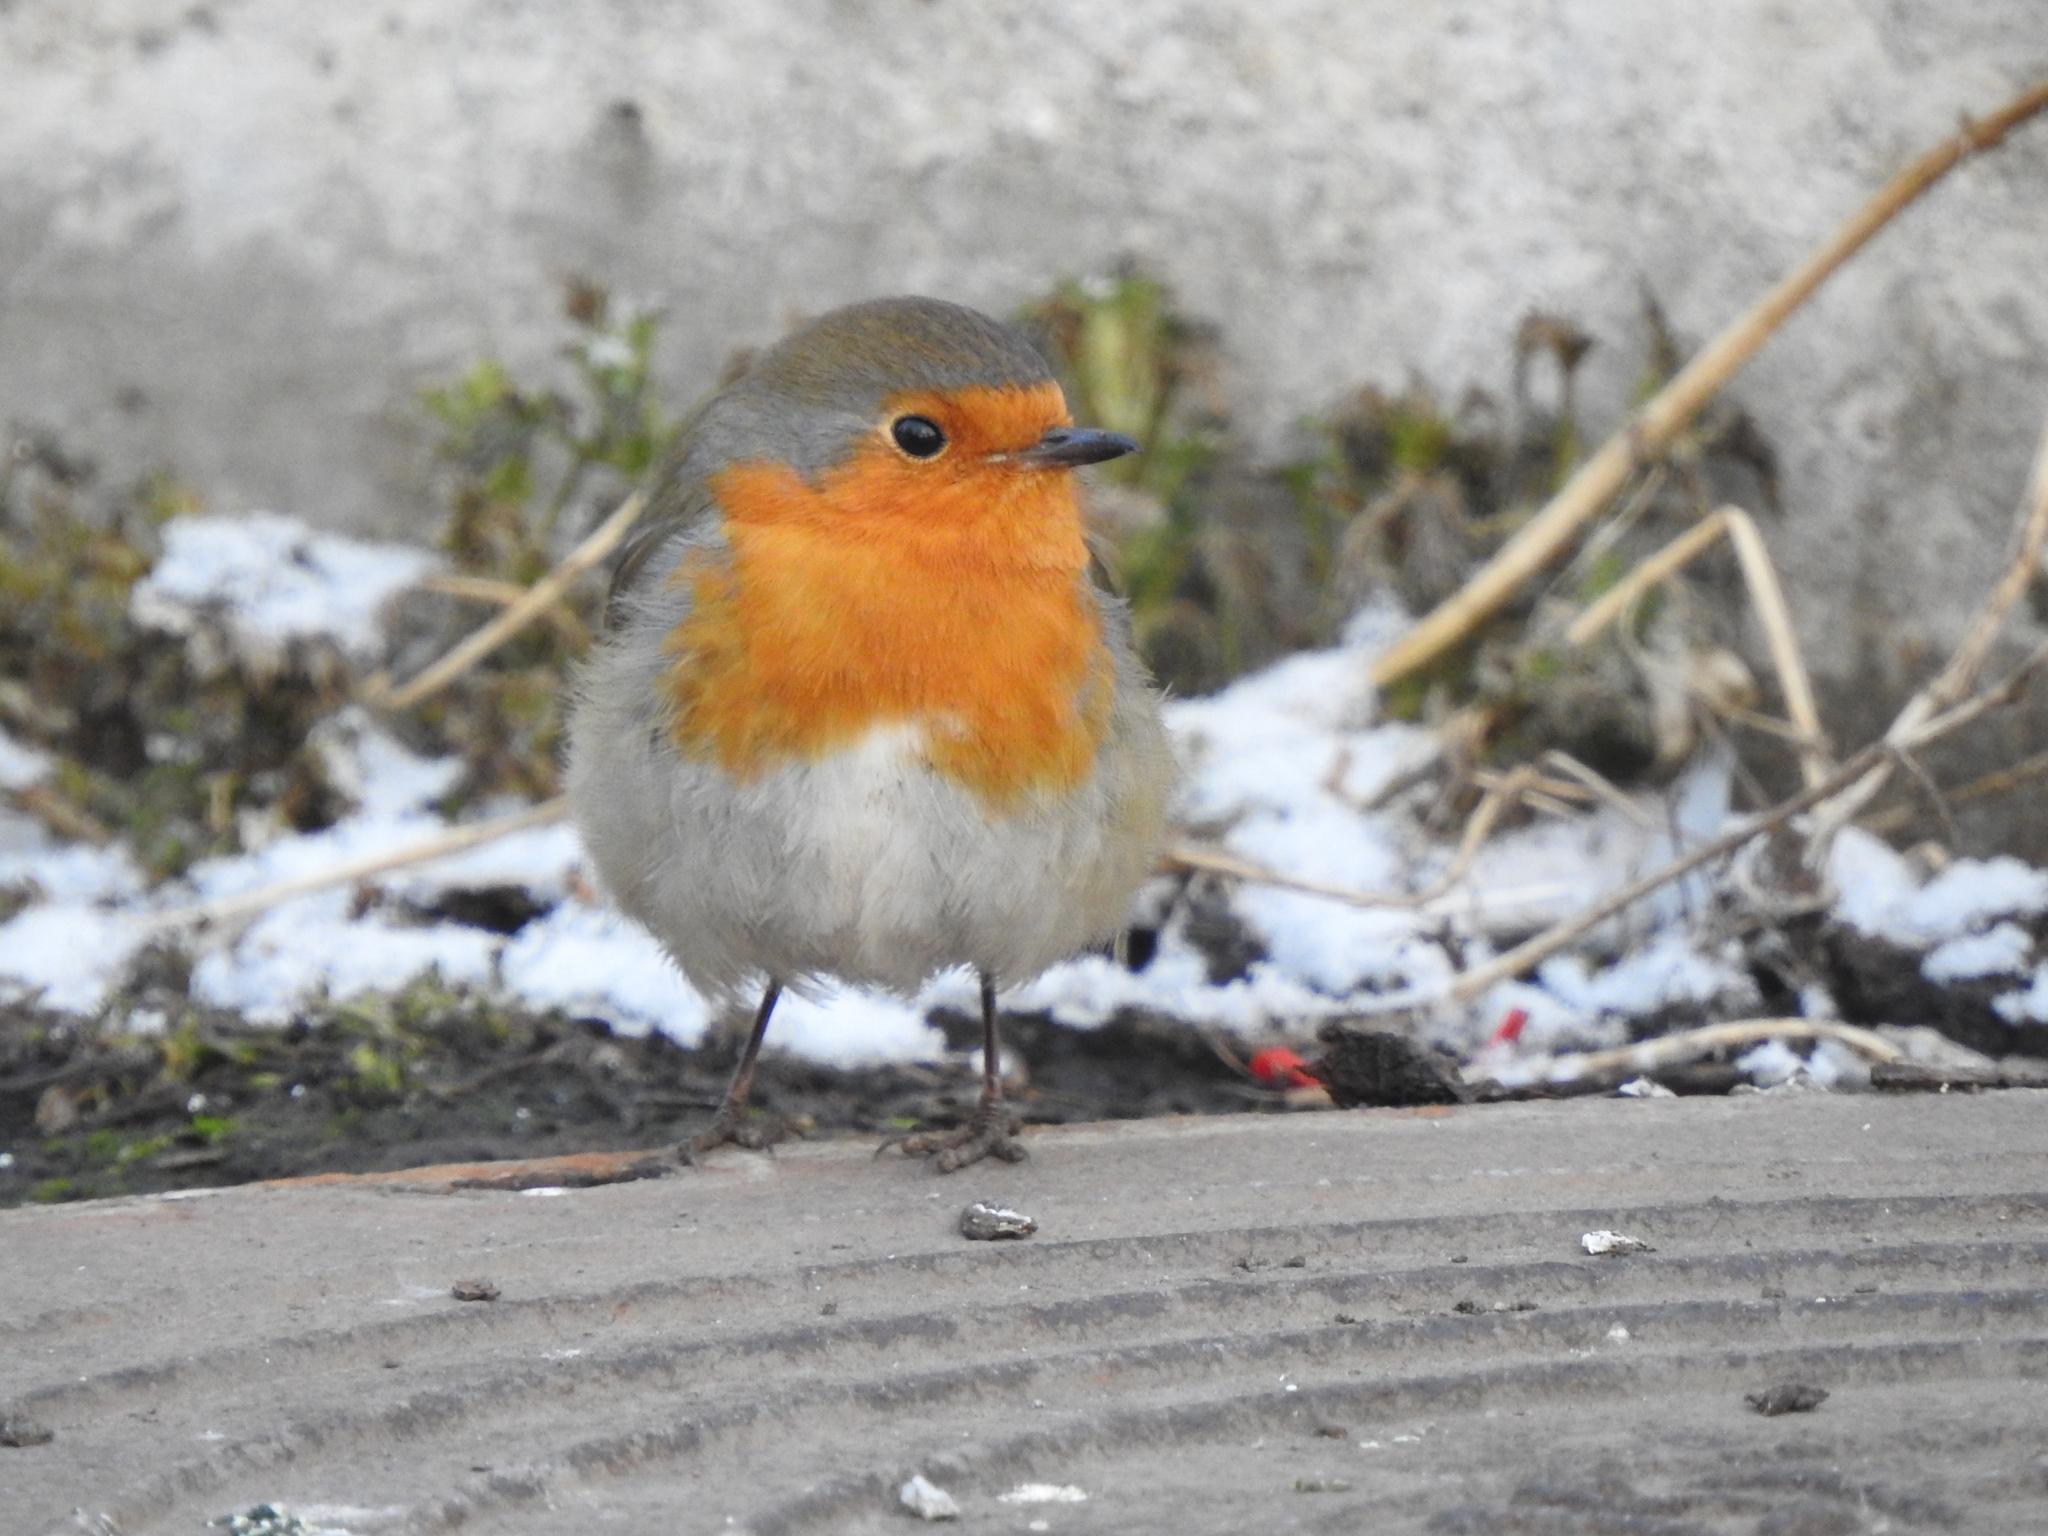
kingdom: Animalia
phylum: Chordata
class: Aves
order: Passeriformes
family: Muscicapidae
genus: Erithacus
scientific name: Erithacus rubecula
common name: European robin
